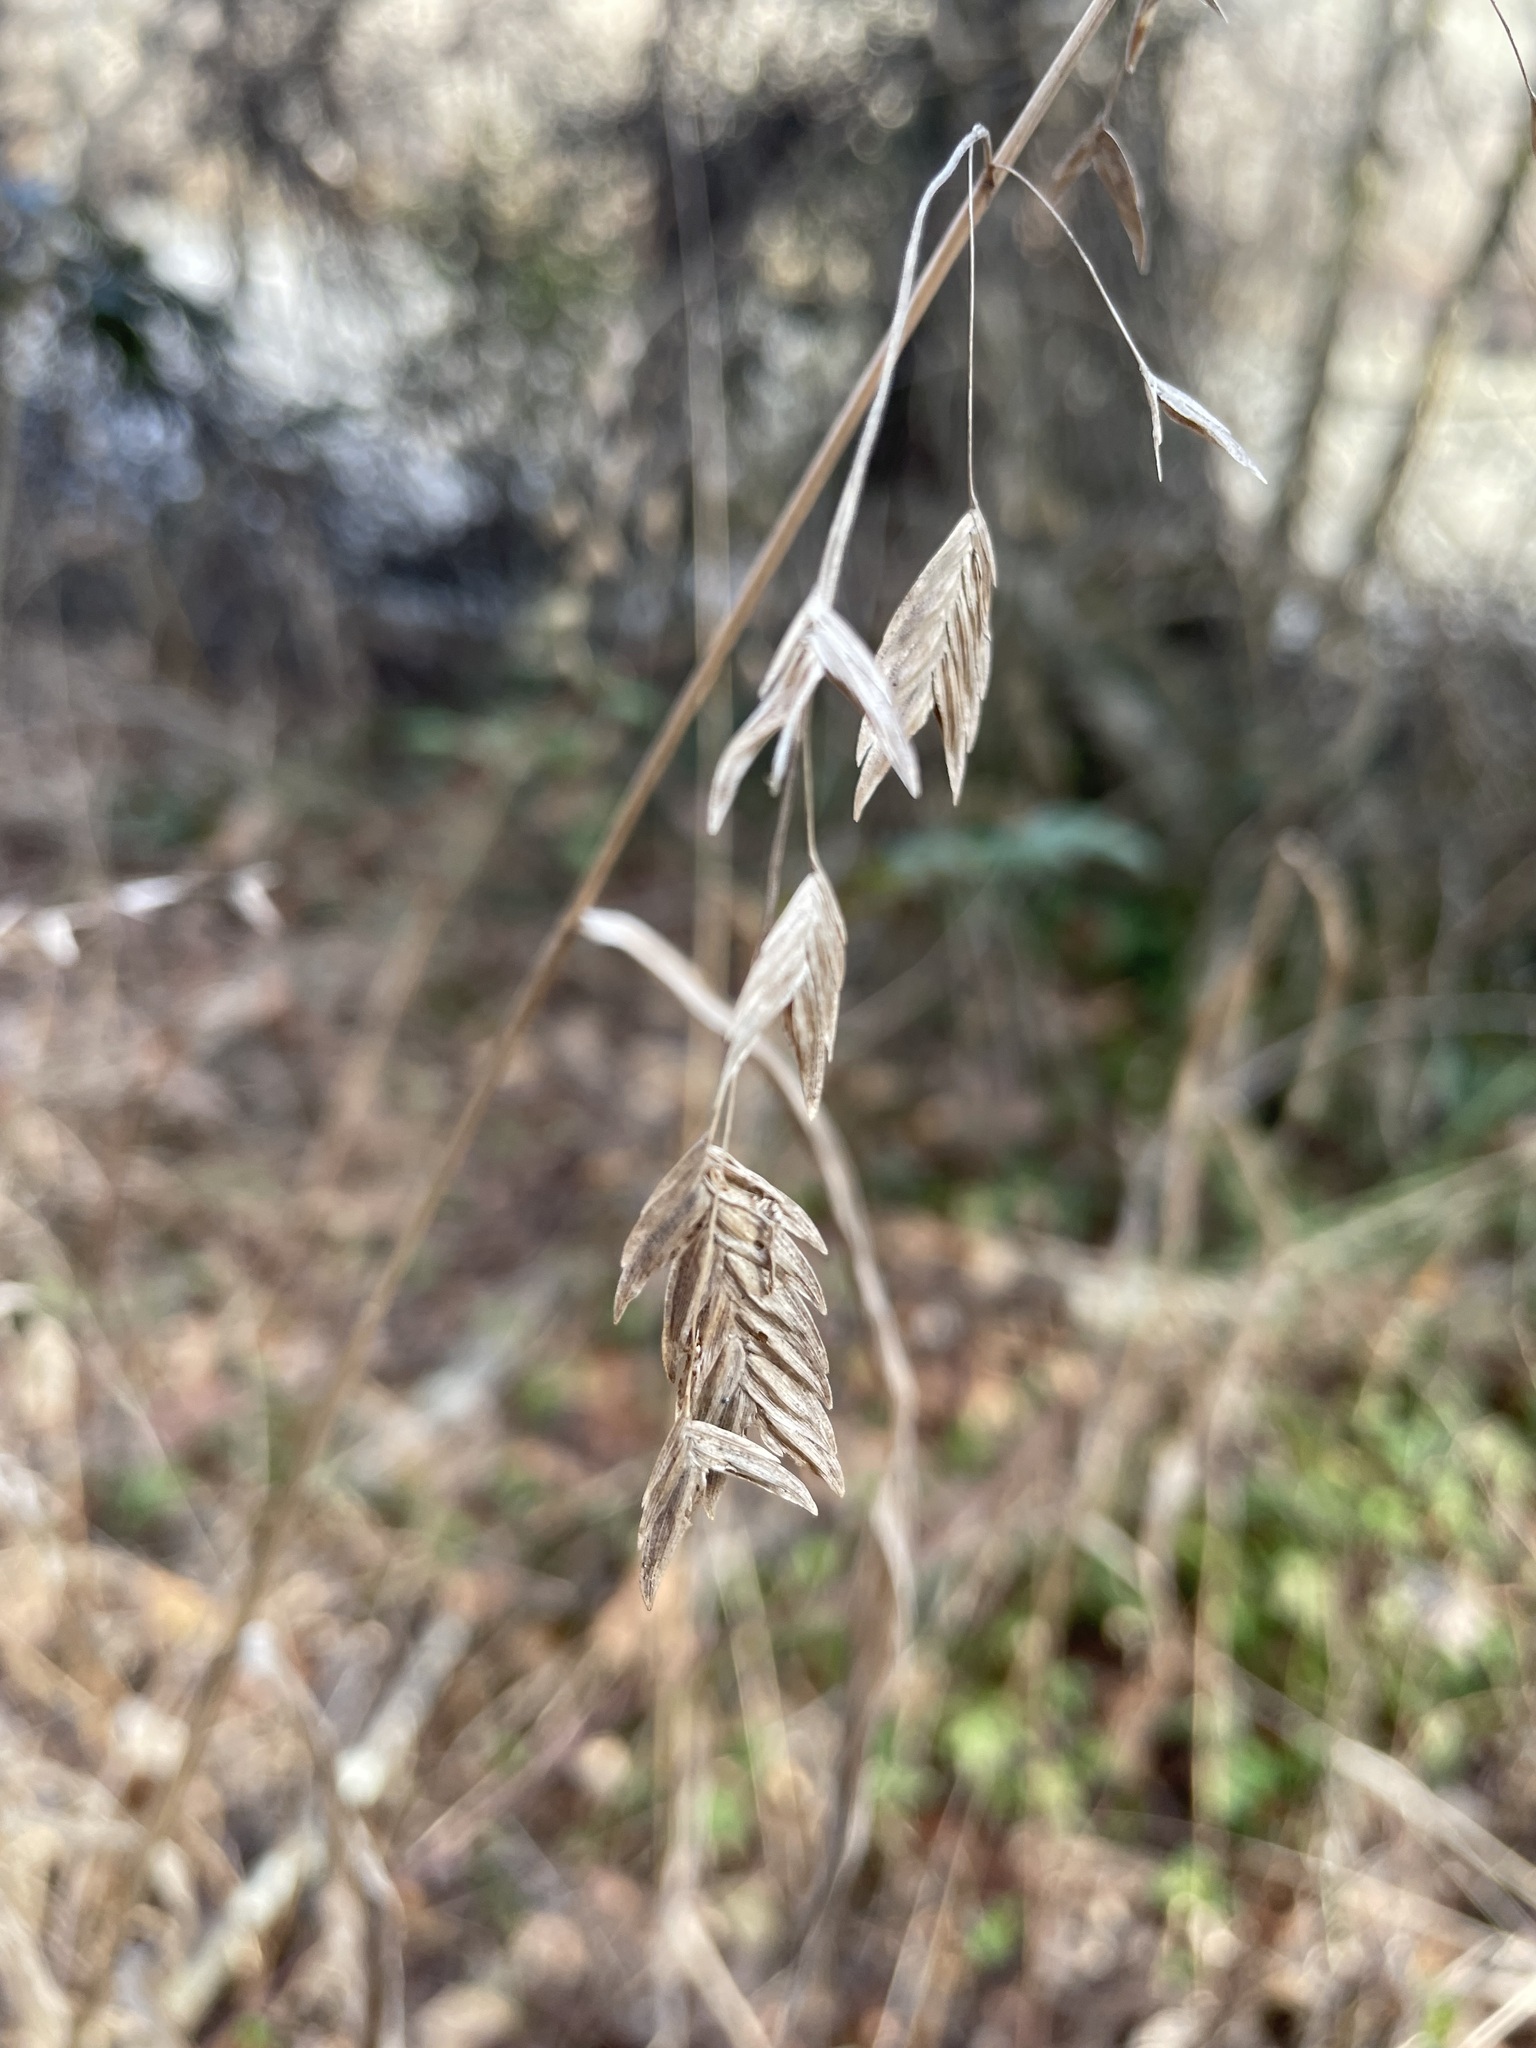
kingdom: Plantae
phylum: Tracheophyta
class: Liliopsida
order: Poales
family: Poaceae
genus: Chasmanthium
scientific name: Chasmanthium latifolium
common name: Broad-leaved chasmanthium
